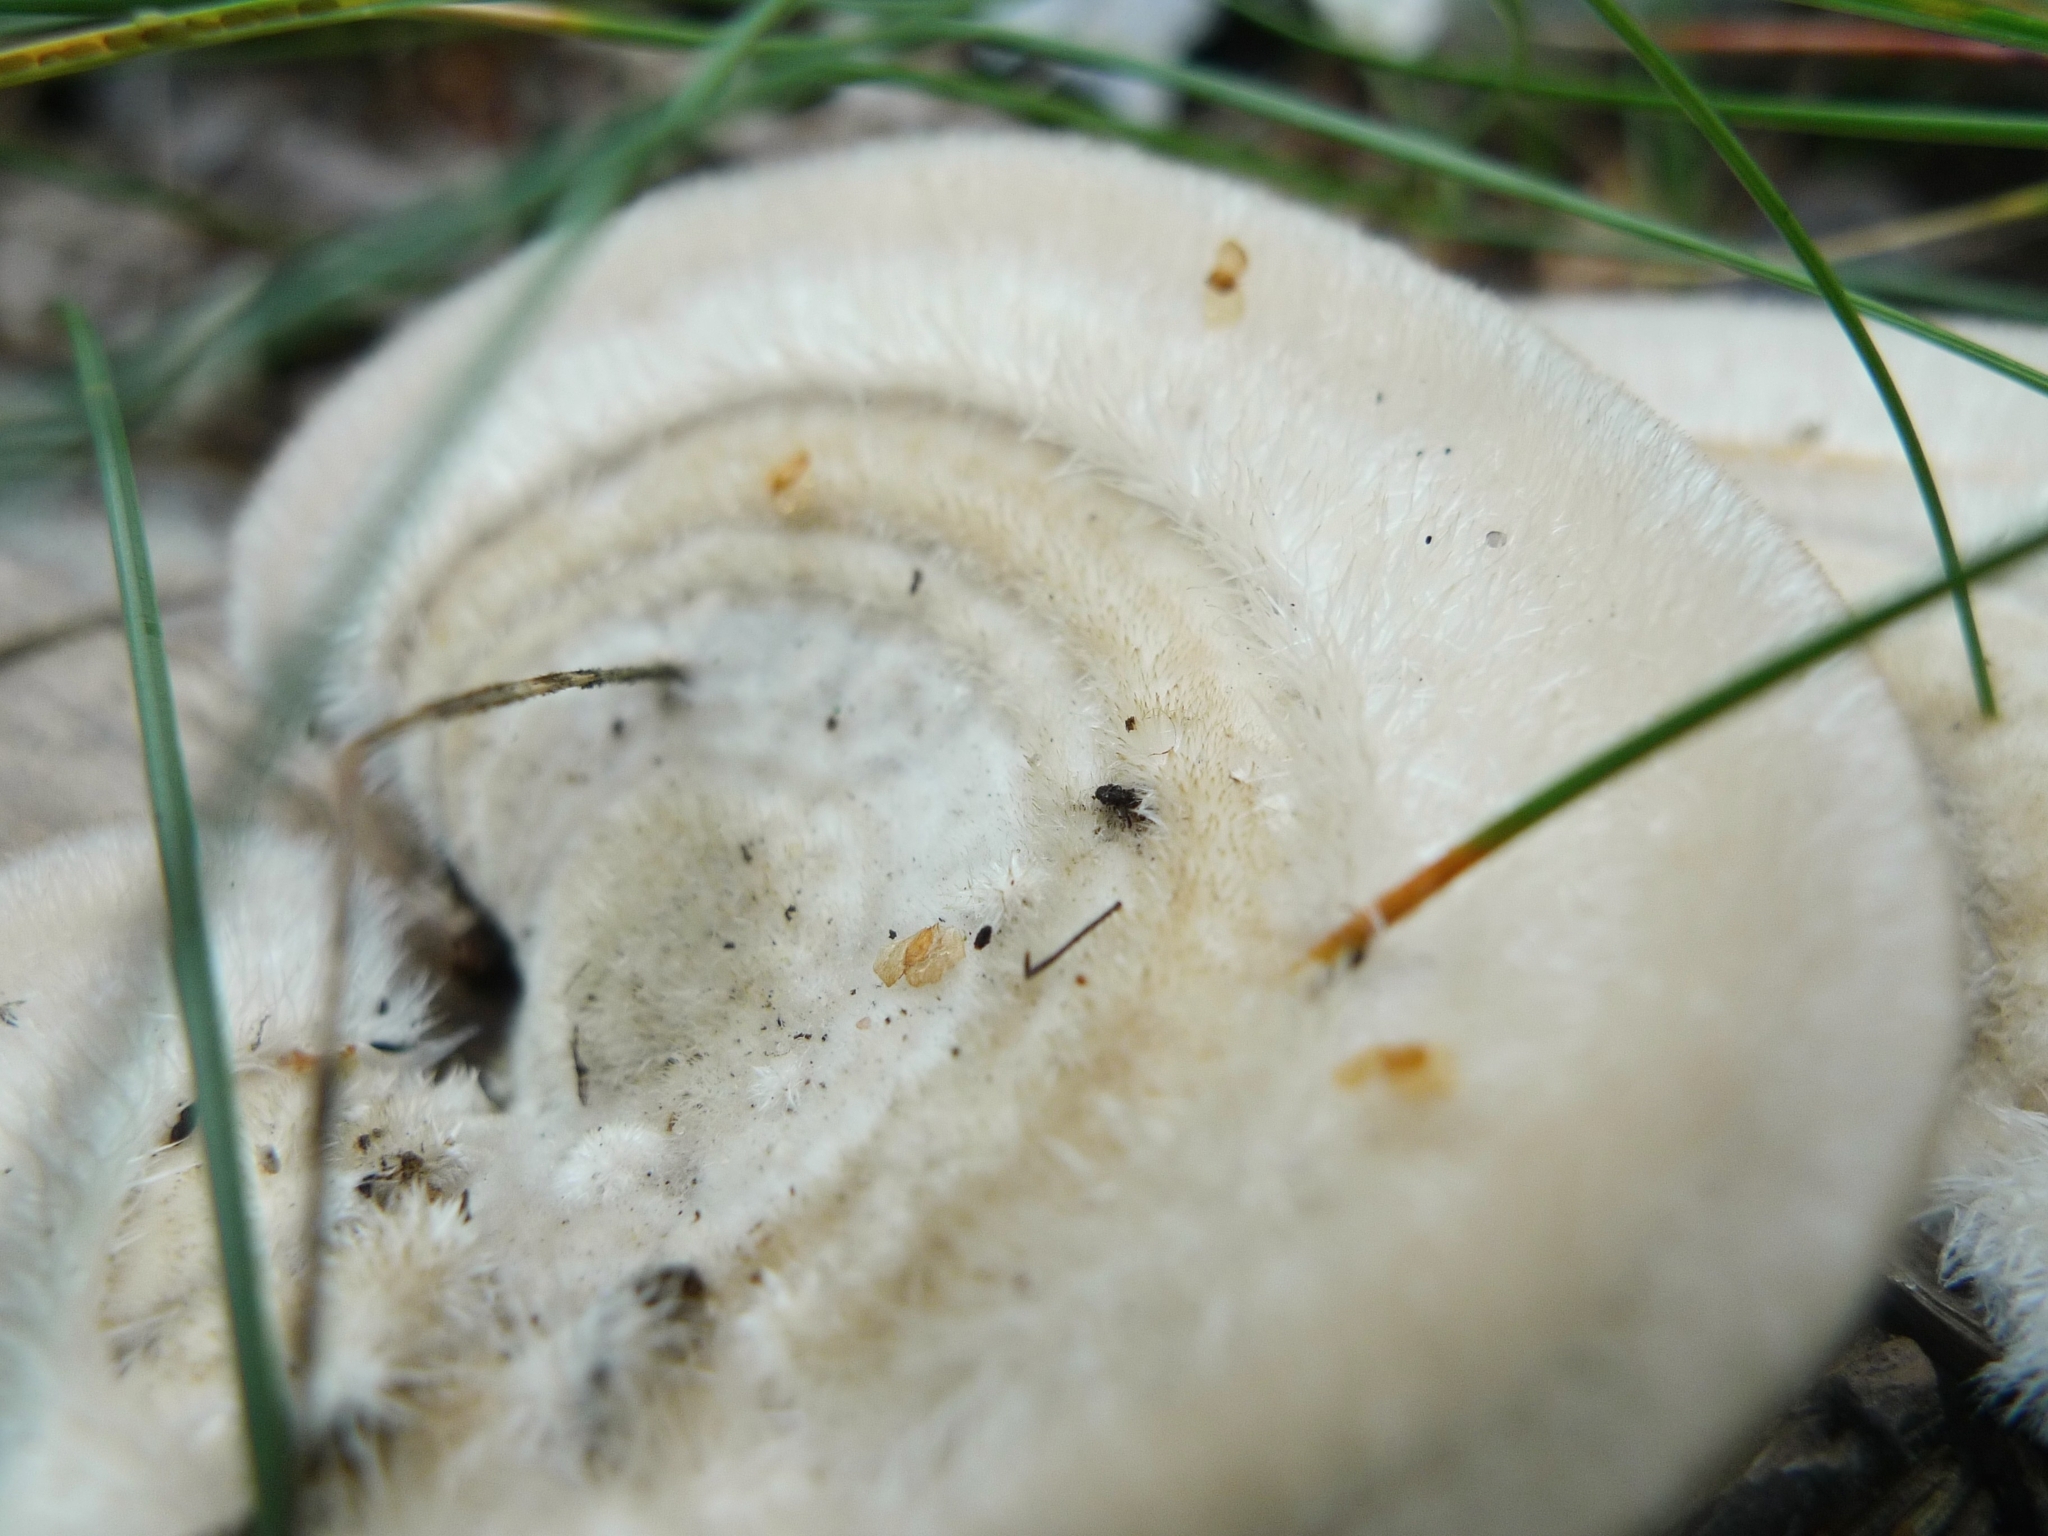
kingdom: Fungi
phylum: Basidiomycota
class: Agaricomycetes
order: Polyporales
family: Polyporaceae
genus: Trametes
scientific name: Trametes hirsuta
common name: Hairy bracket
